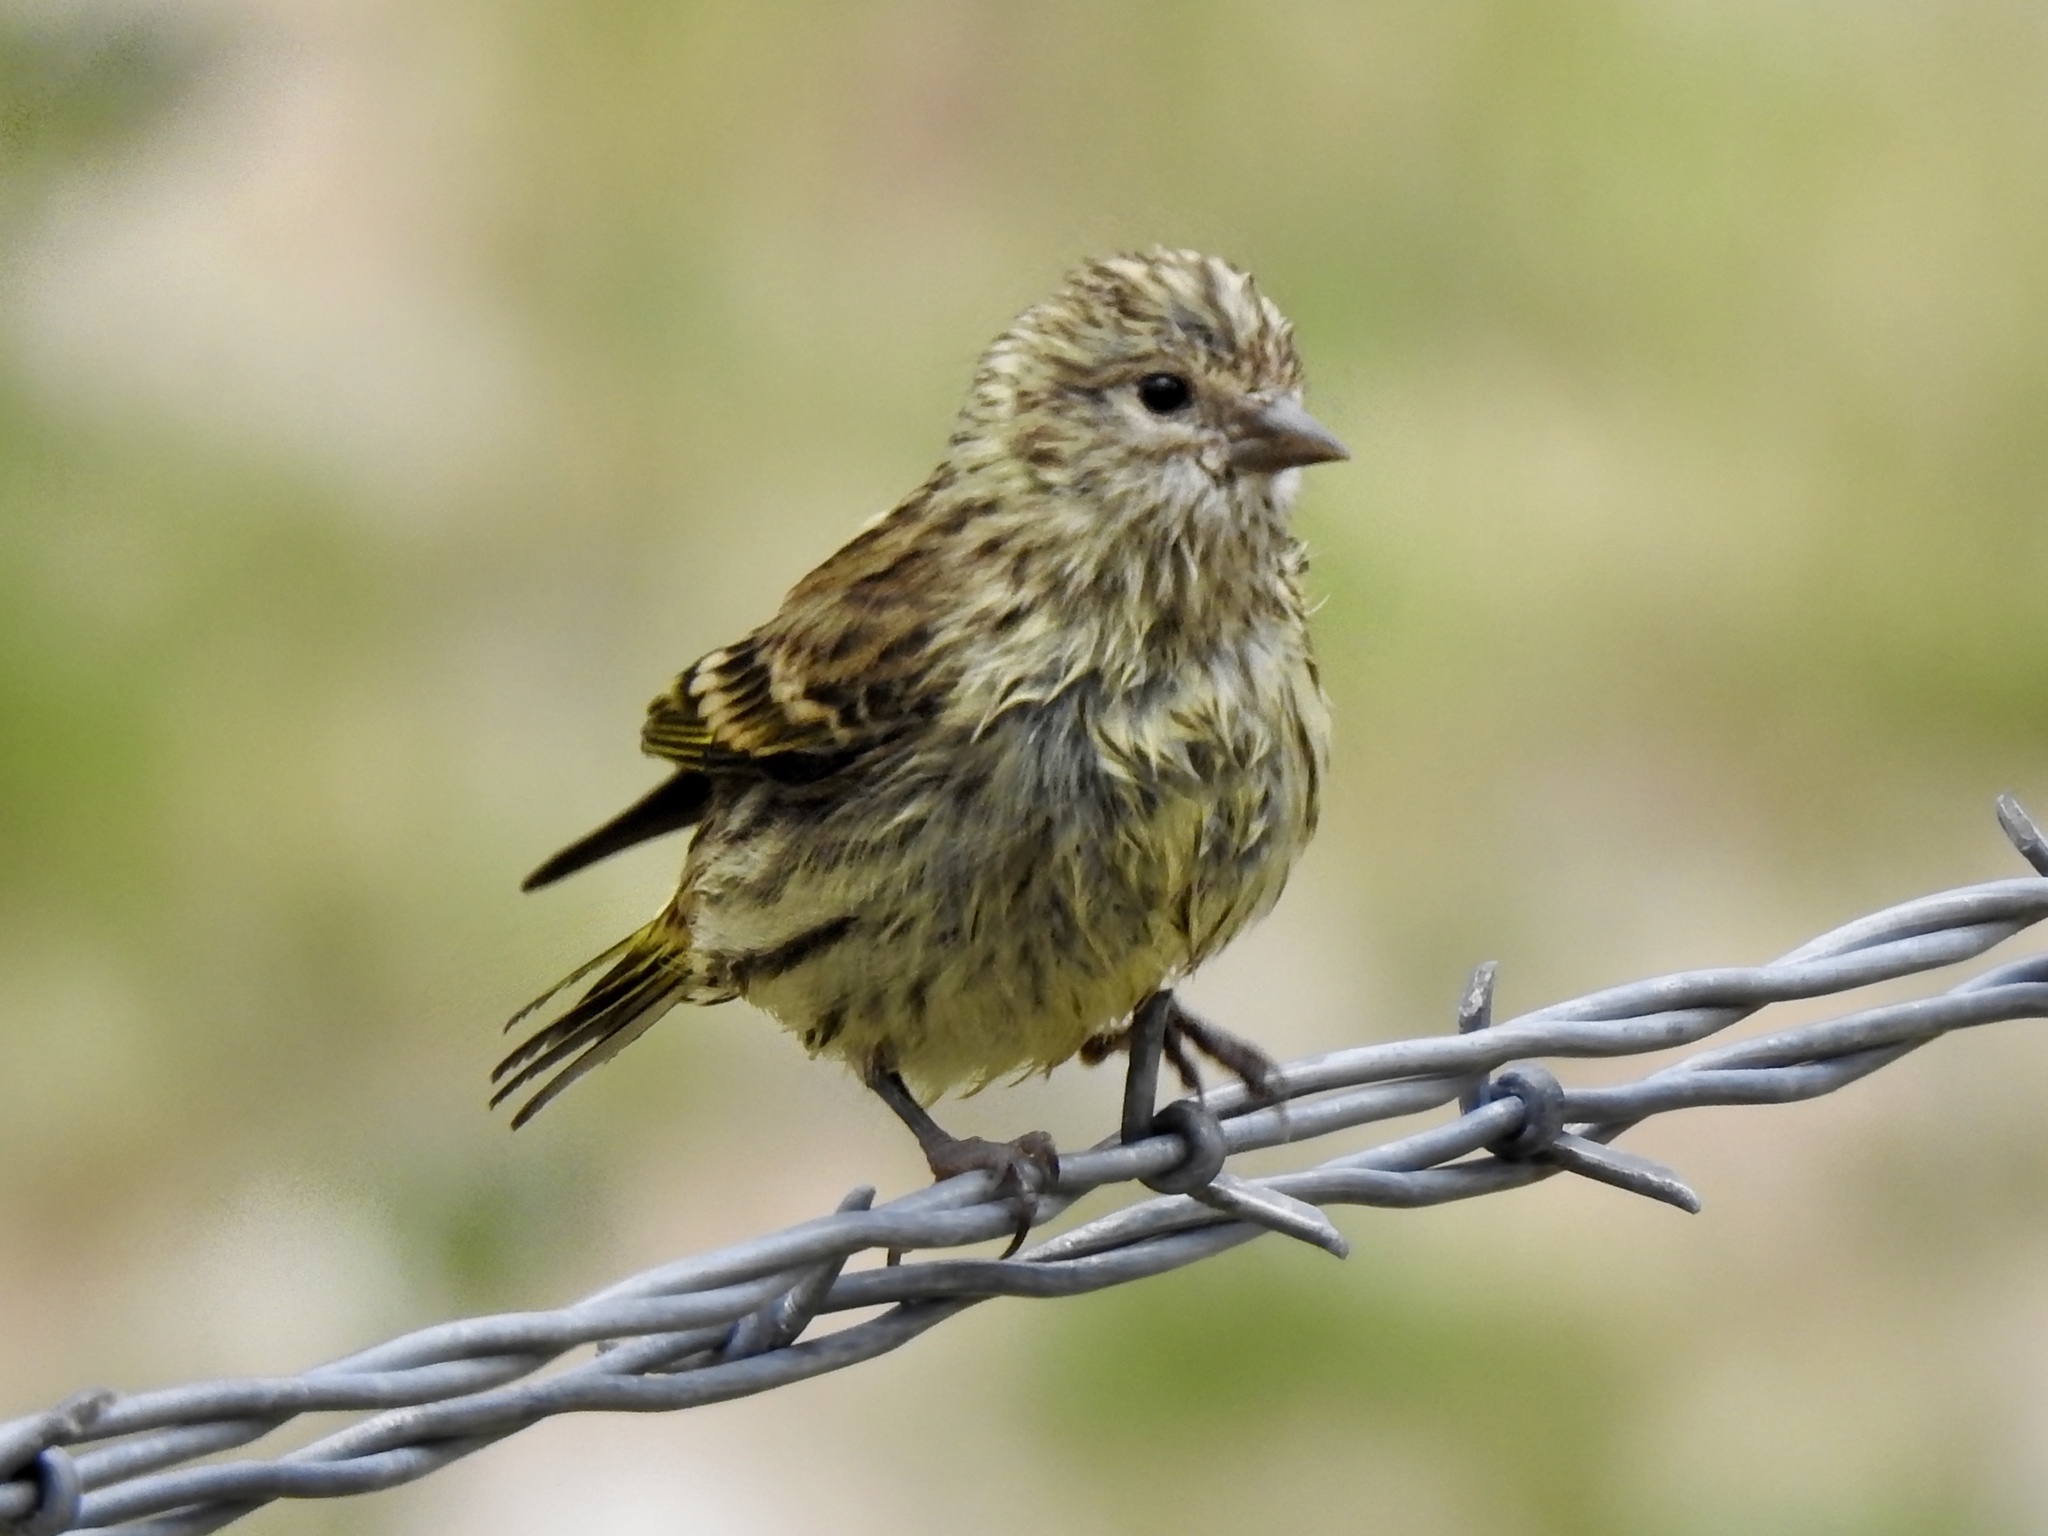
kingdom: Animalia
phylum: Chordata
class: Aves
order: Passeriformes
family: Fringillidae
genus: Spinus
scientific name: Spinus pinus
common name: Pine siskin
